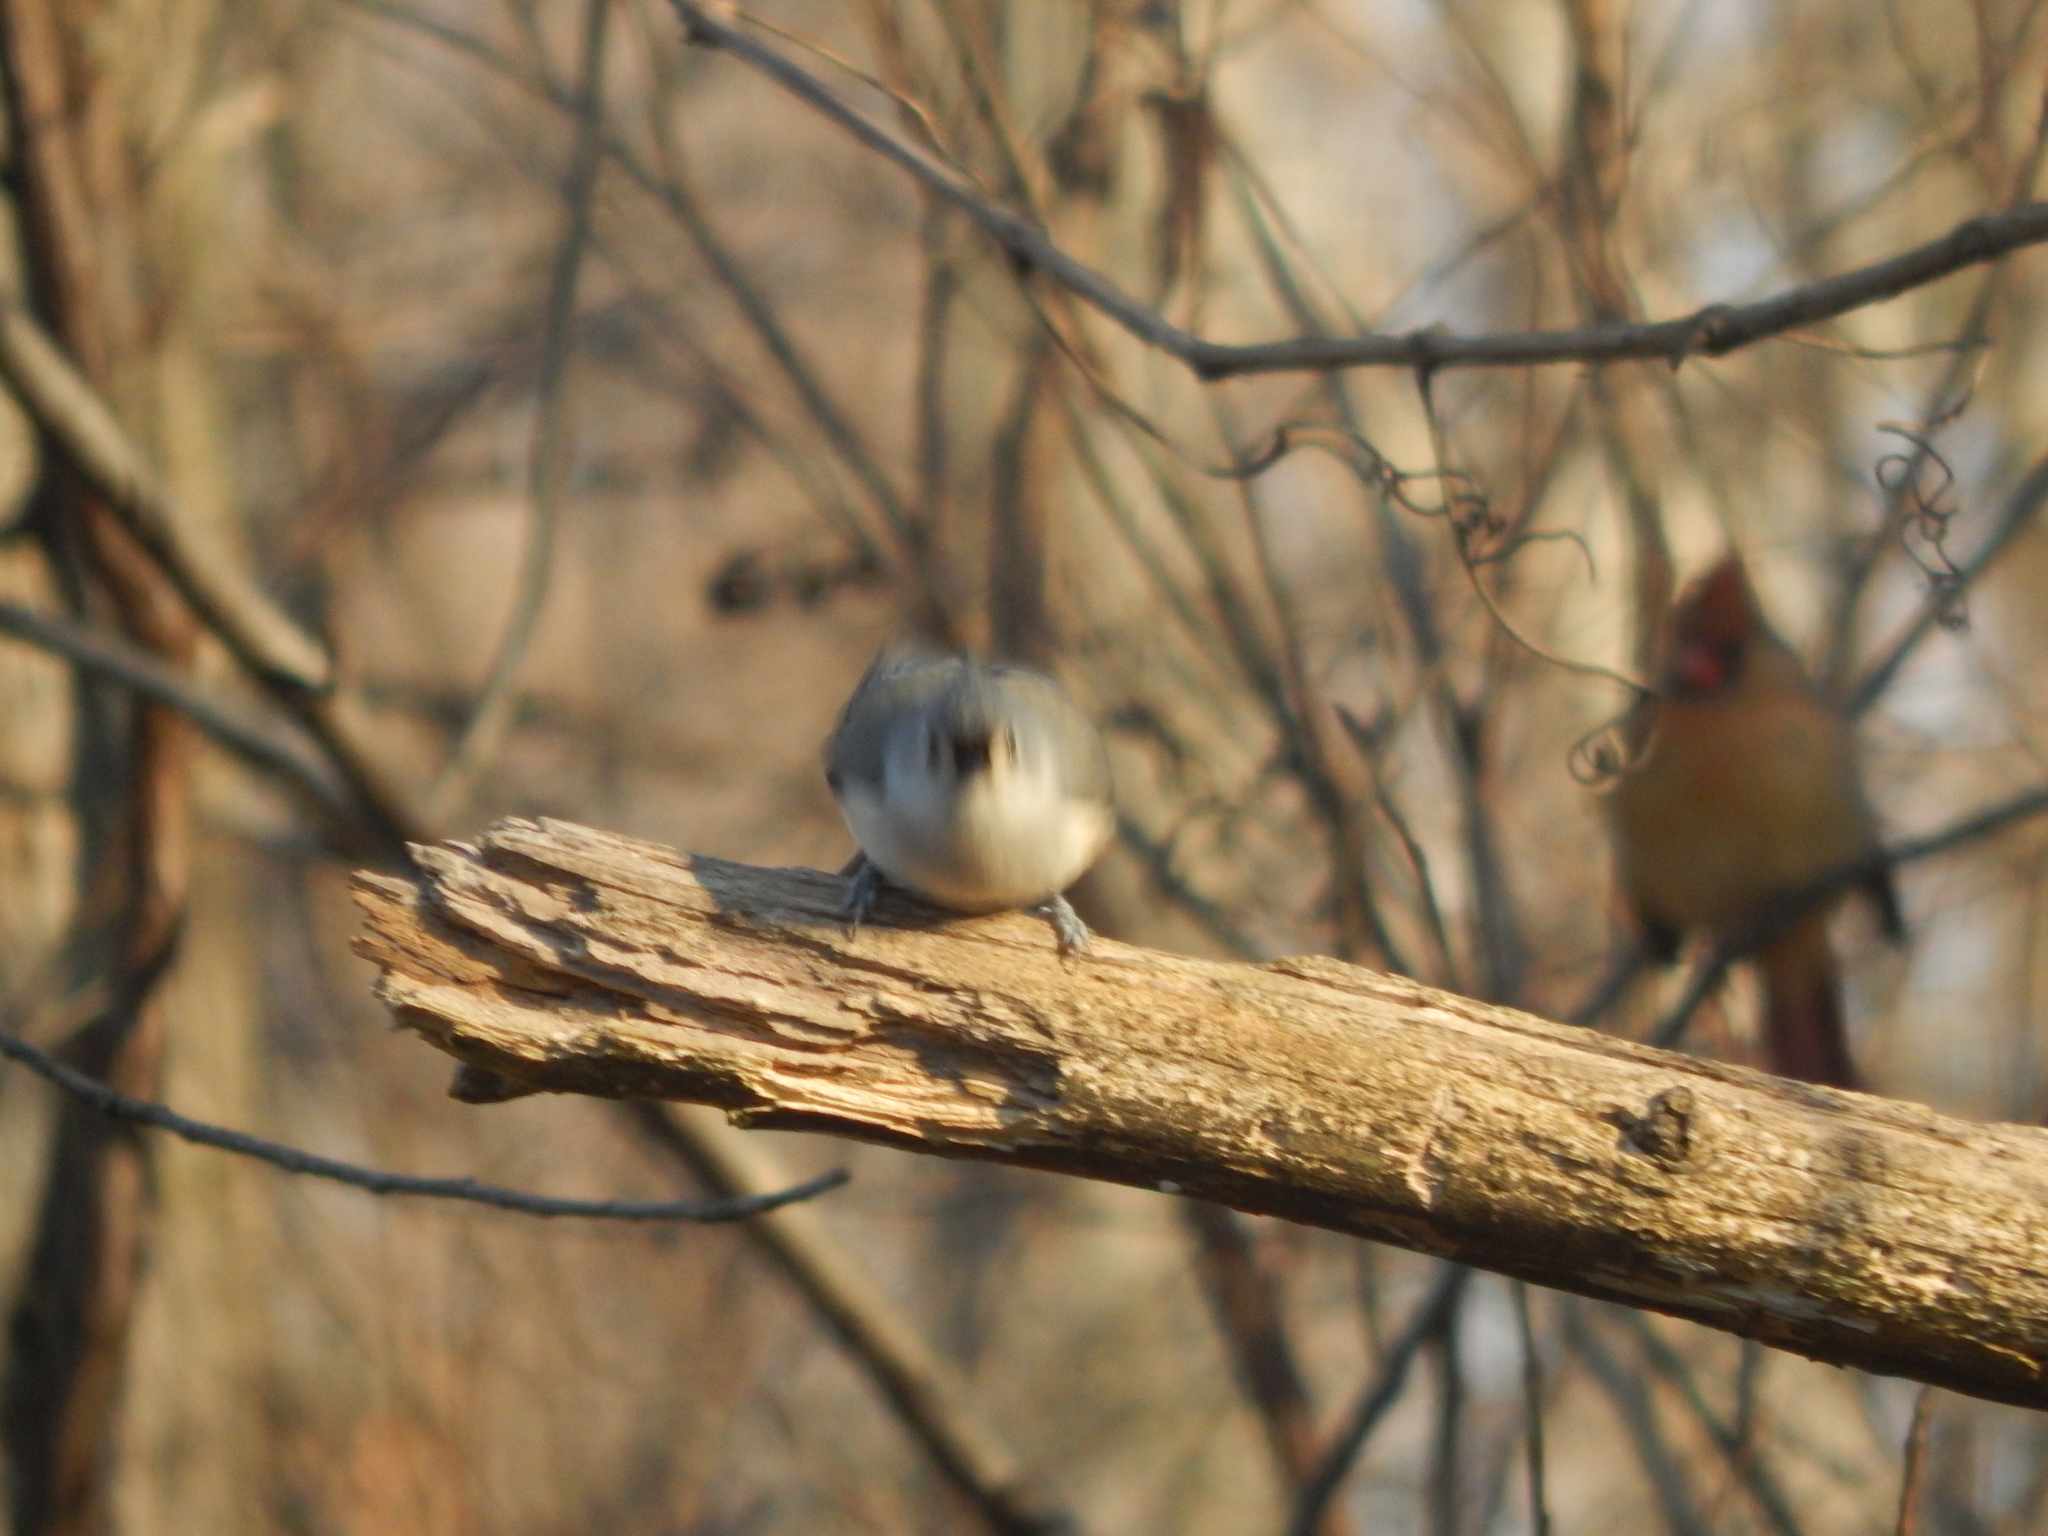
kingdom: Animalia
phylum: Chordata
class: Aves
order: Passeriformes
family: Paridae
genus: Baeolophus
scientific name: Baeolophus bicolor
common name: Tufted titmouse
